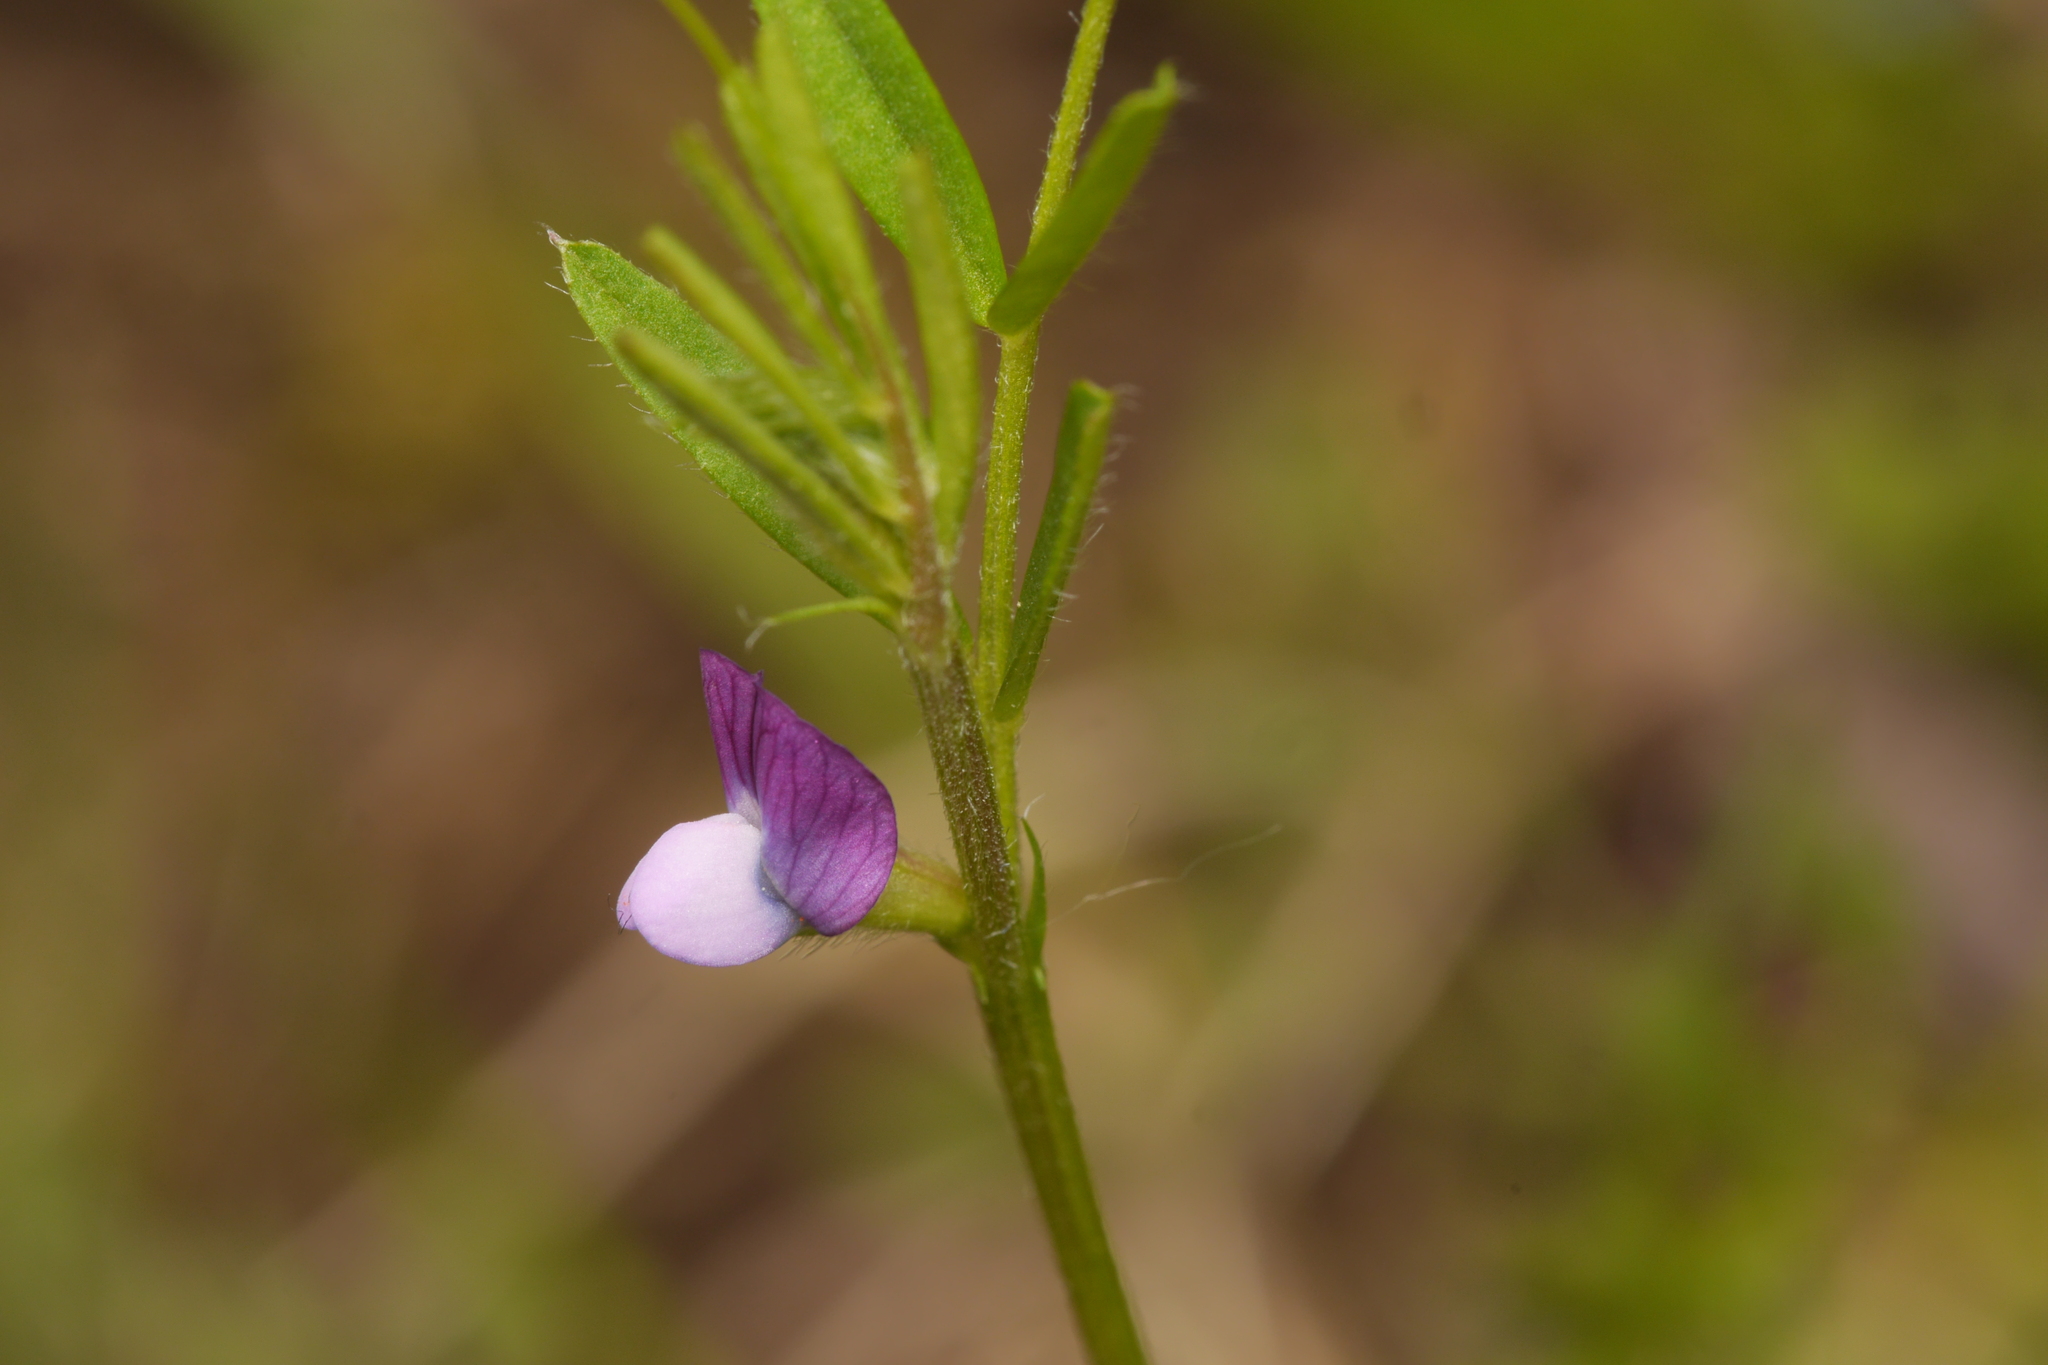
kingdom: Plantae
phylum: Tracheophyta
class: Magnoliopsida
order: Fabales
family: Fabaceae
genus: Vicia
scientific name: Vicia lathyroides
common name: Spring vetch
